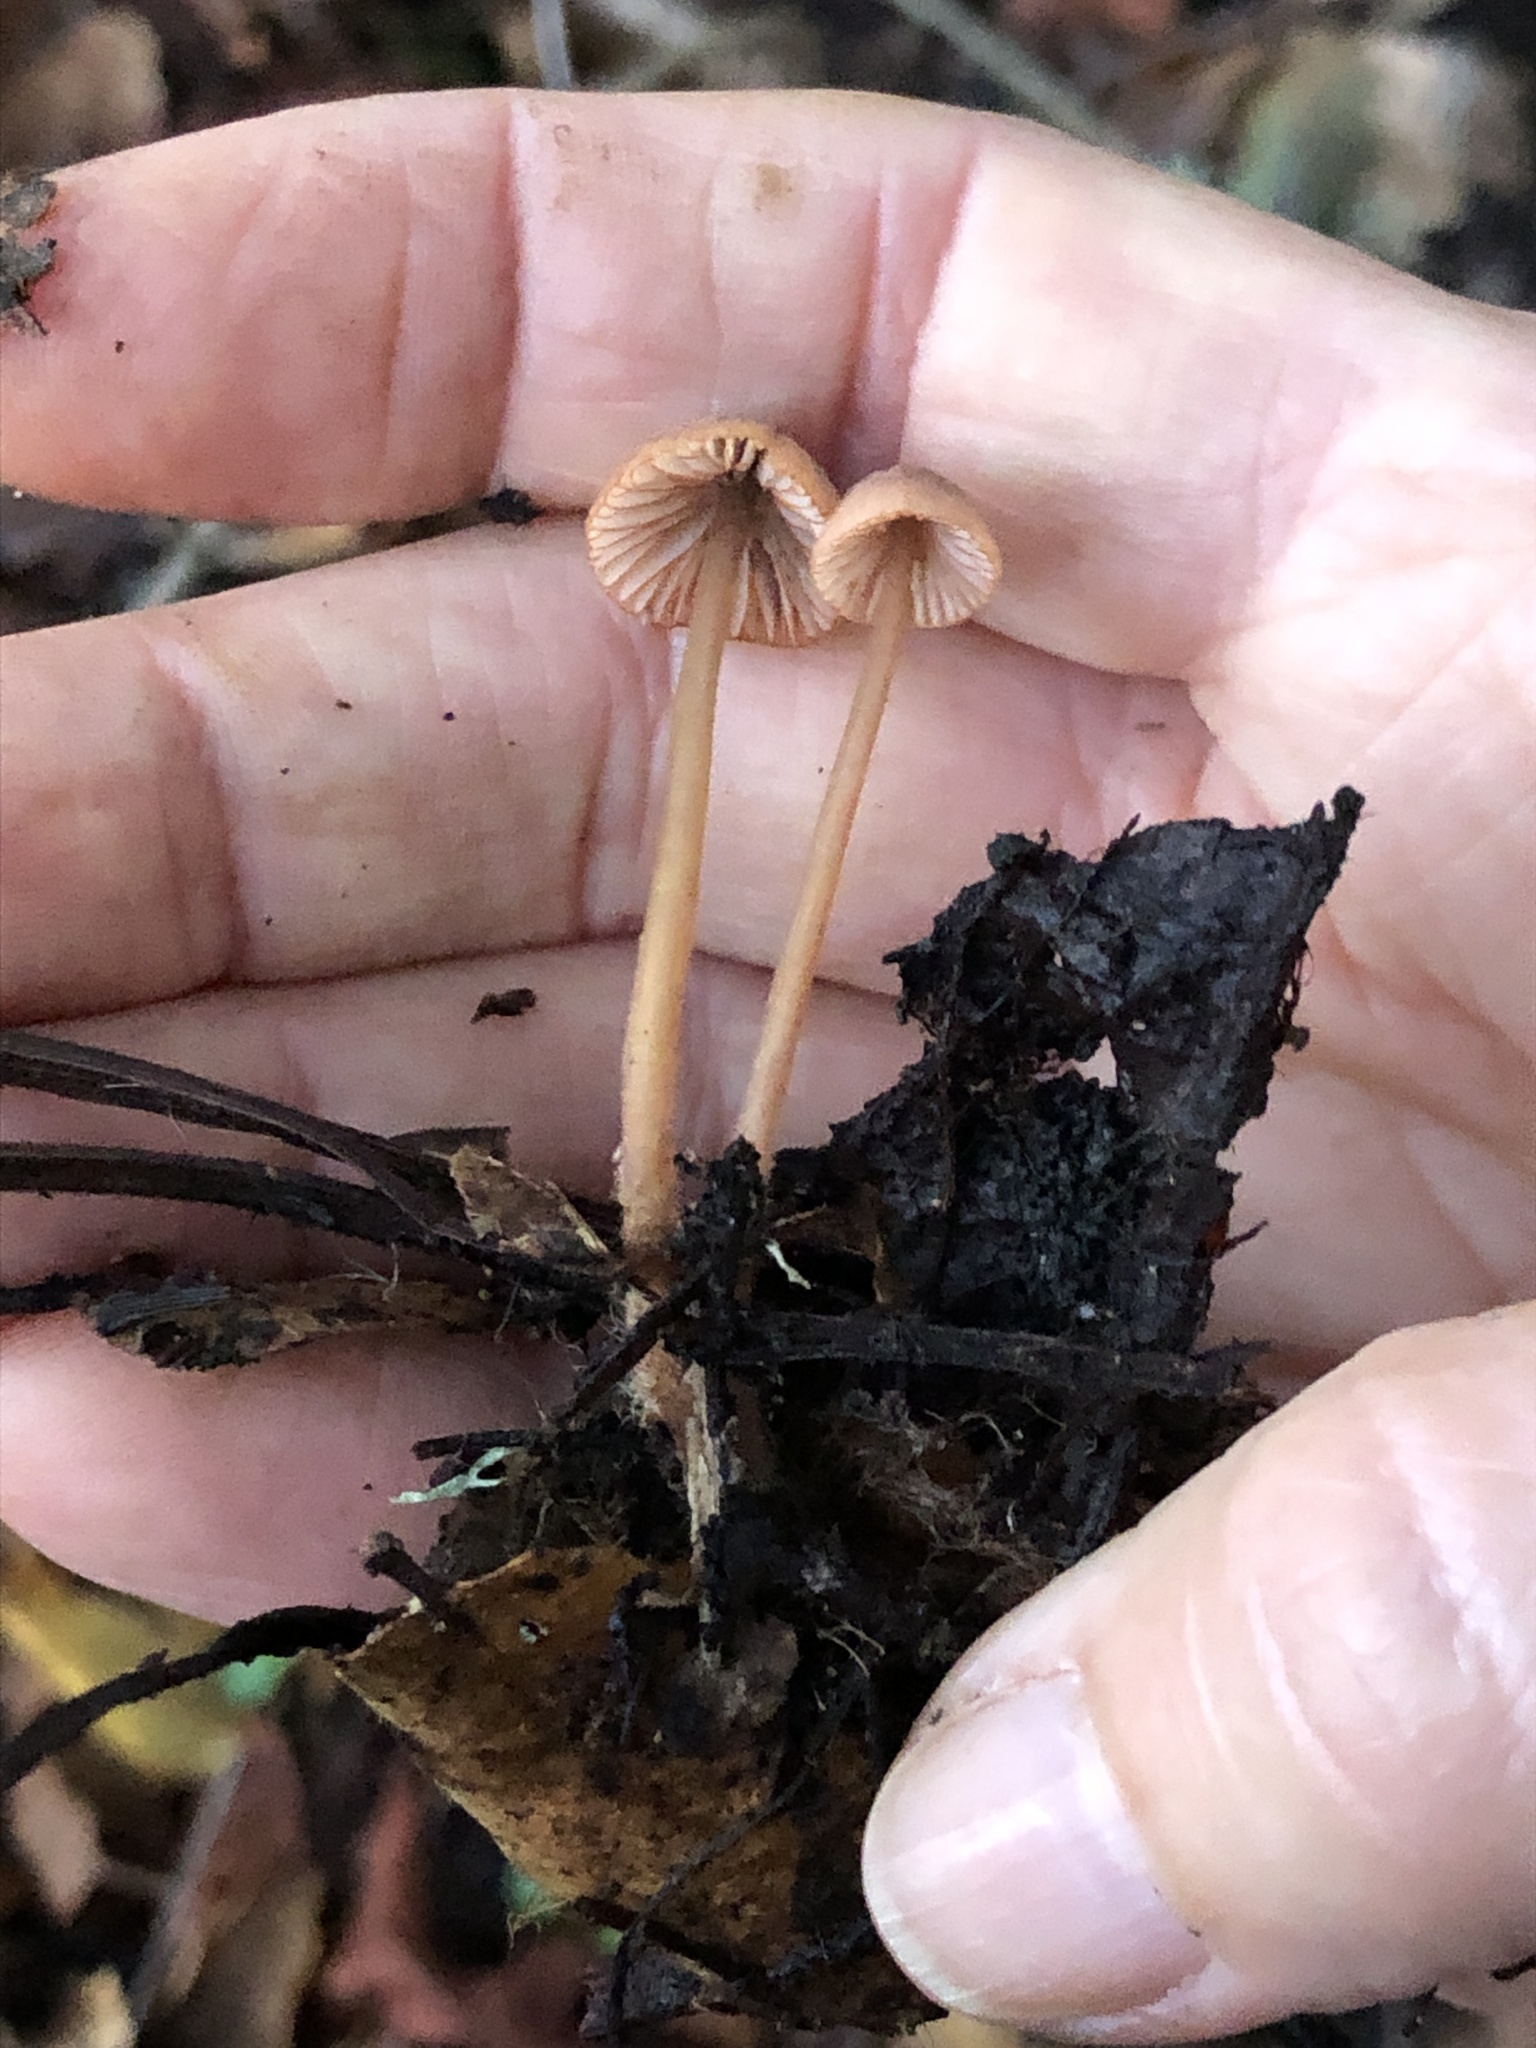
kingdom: Fungi
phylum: Basidiomycota
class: Agaricomycetes
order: Agaricales
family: Mycenaceae
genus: Mycena
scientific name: Mycena
